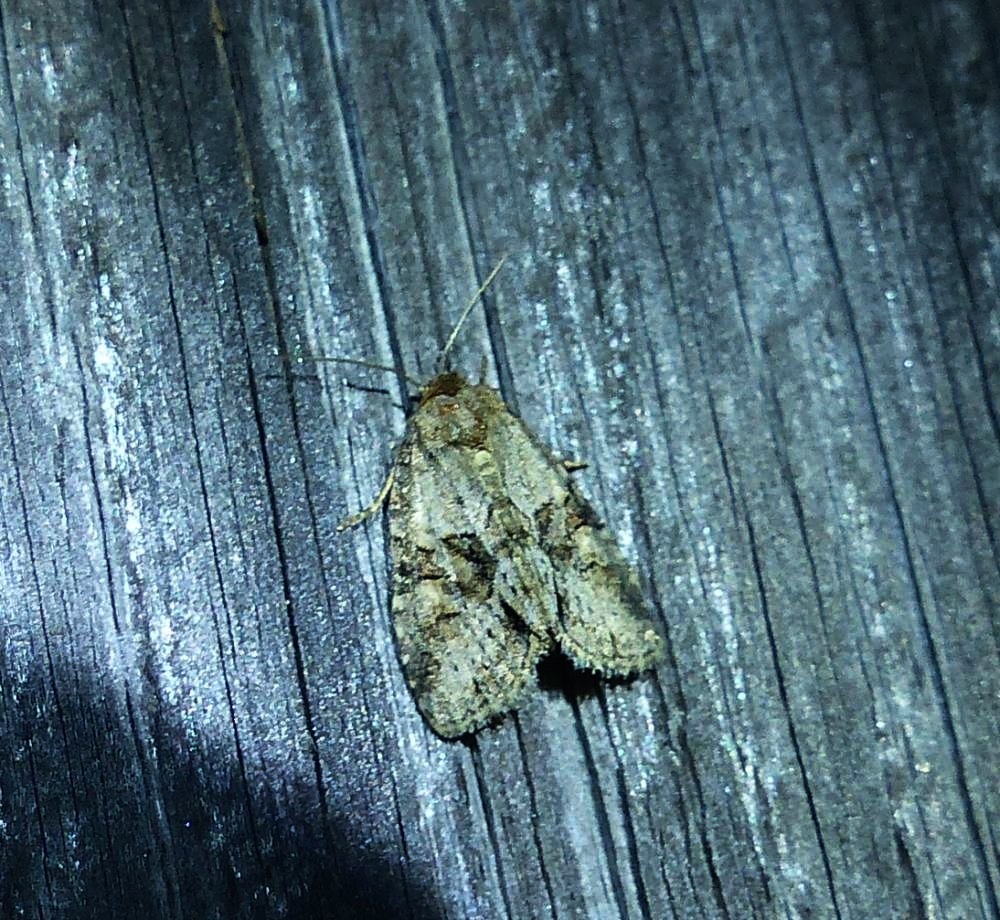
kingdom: Animalia
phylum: Arthropoda
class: Insecta
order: Lepidoptera
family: Noctuidae
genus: Neoligia
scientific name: Neoligia exhausta
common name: Exhausted brocade
